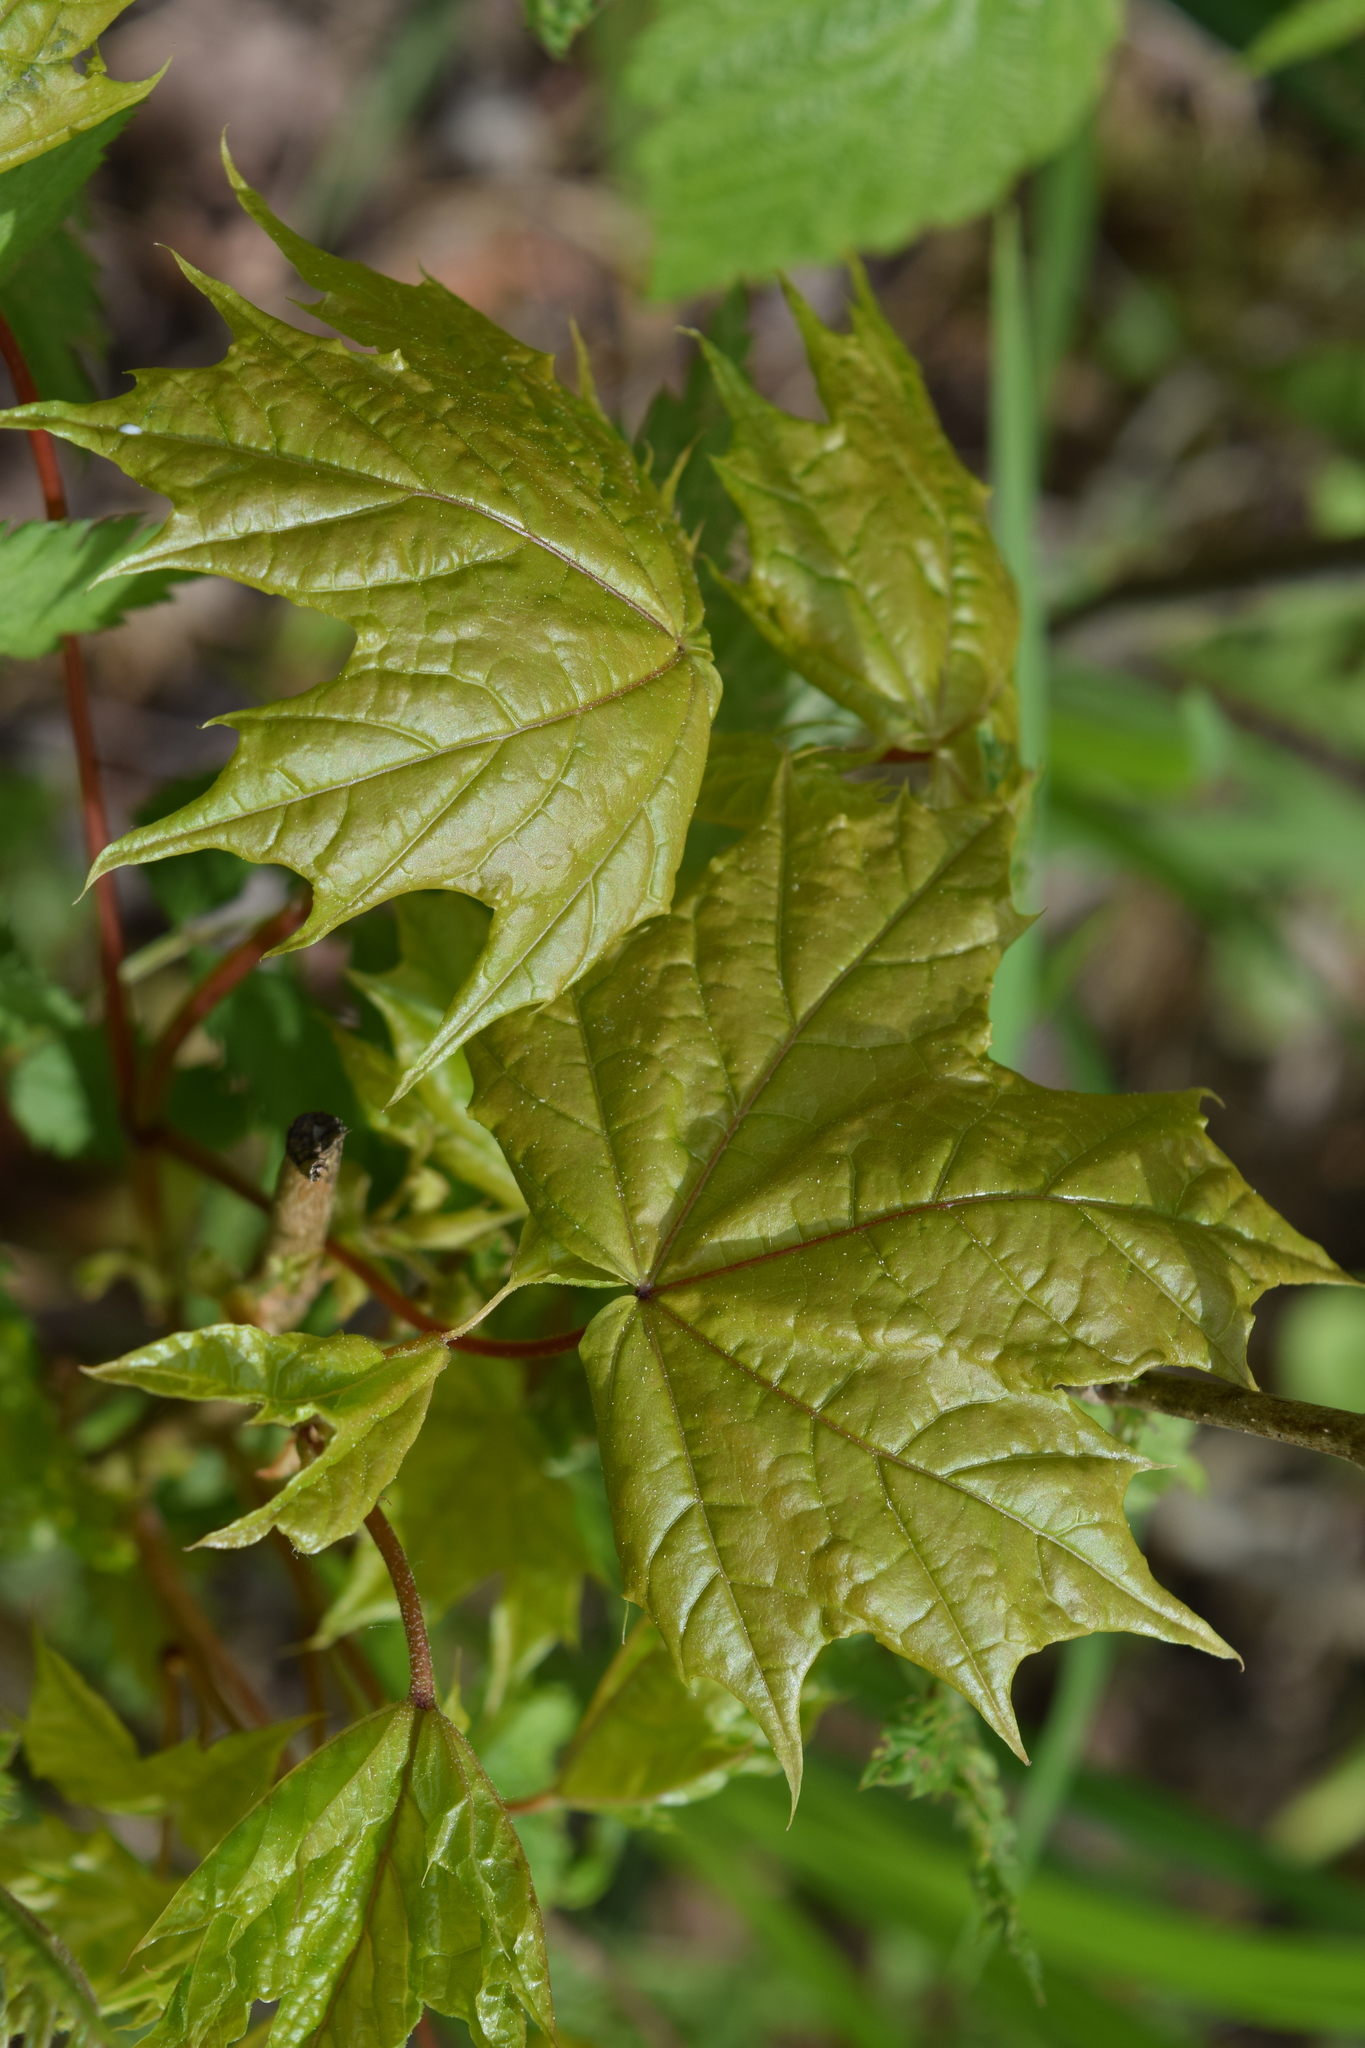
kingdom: Plantae
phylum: Tracheophyta
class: Magnoliopsida
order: Sapindales
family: Sapindaceae
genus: Acer
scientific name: Acer platanoides
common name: Norway maple
